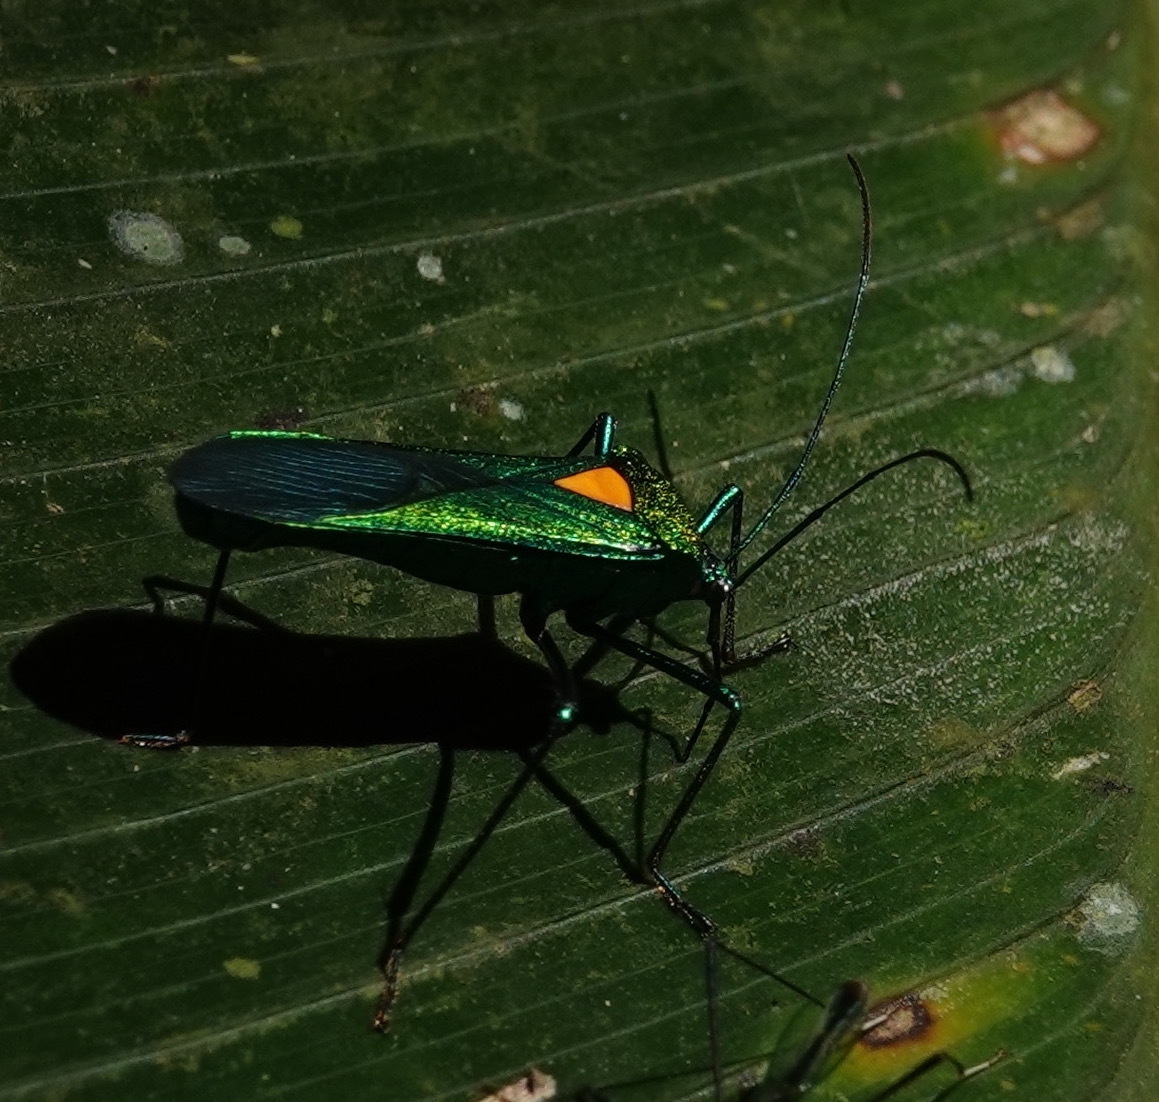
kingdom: Animalia
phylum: Arthropoda
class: Insecta
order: Hemiptera
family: Coreidae
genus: Stenoprasia
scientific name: Stenoprasia flavoscutellata
